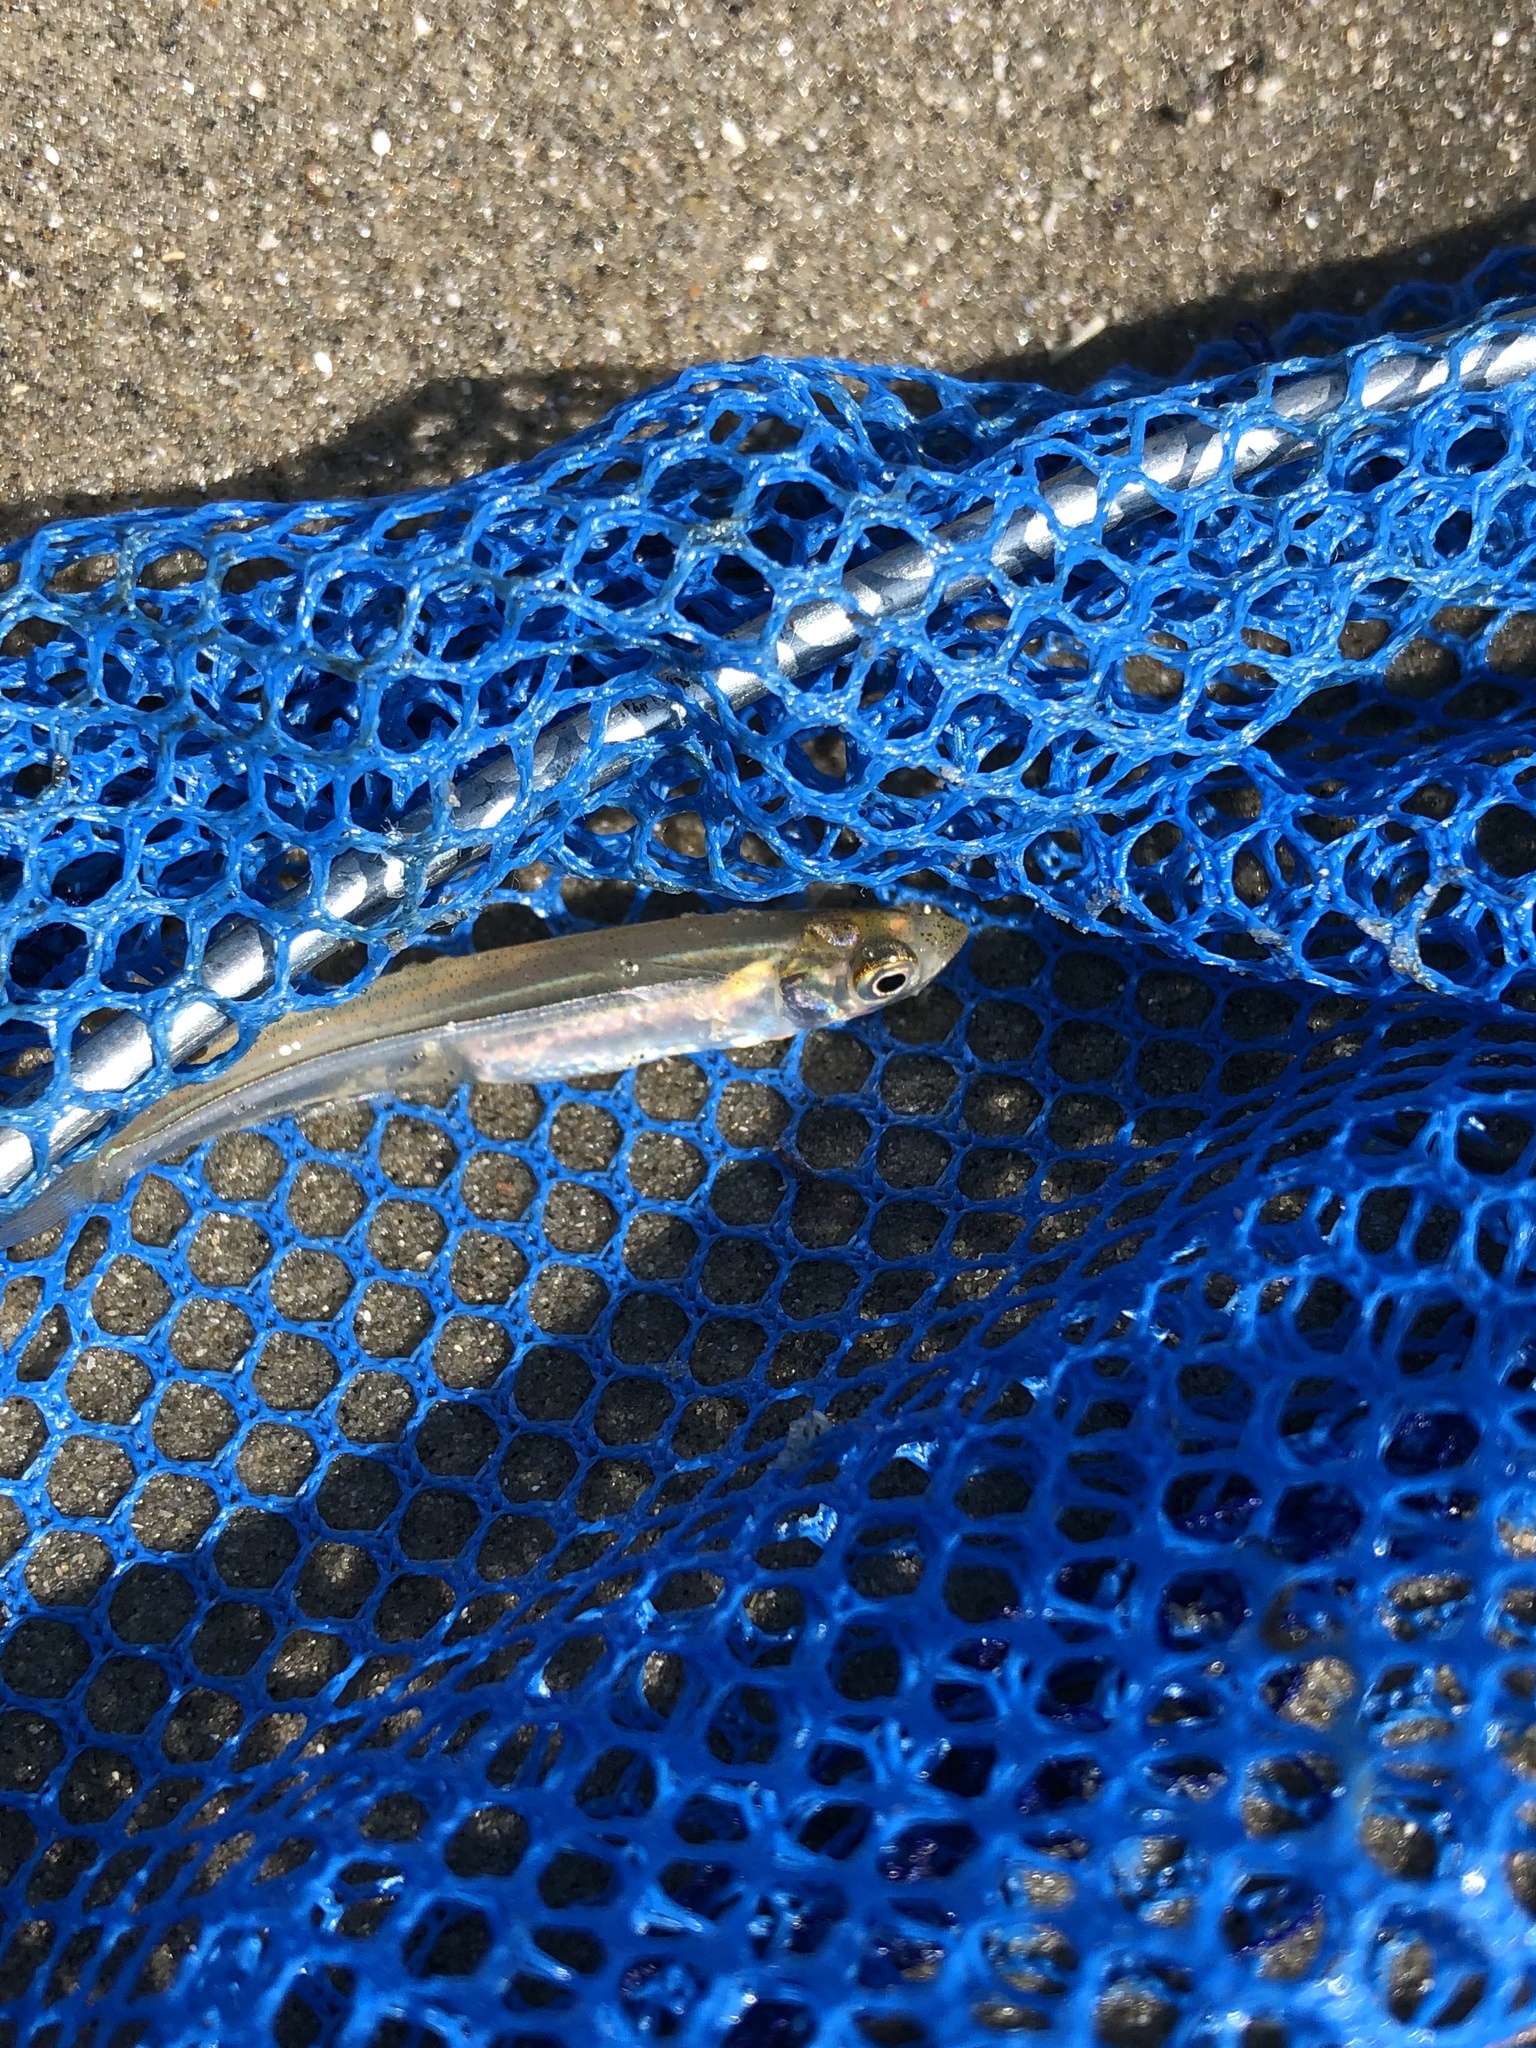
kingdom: Animalia
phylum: Chordata
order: Atheriniformes
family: Atherinopsidae
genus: Menidia
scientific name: Menidia menidia
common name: Atlantic silverside
